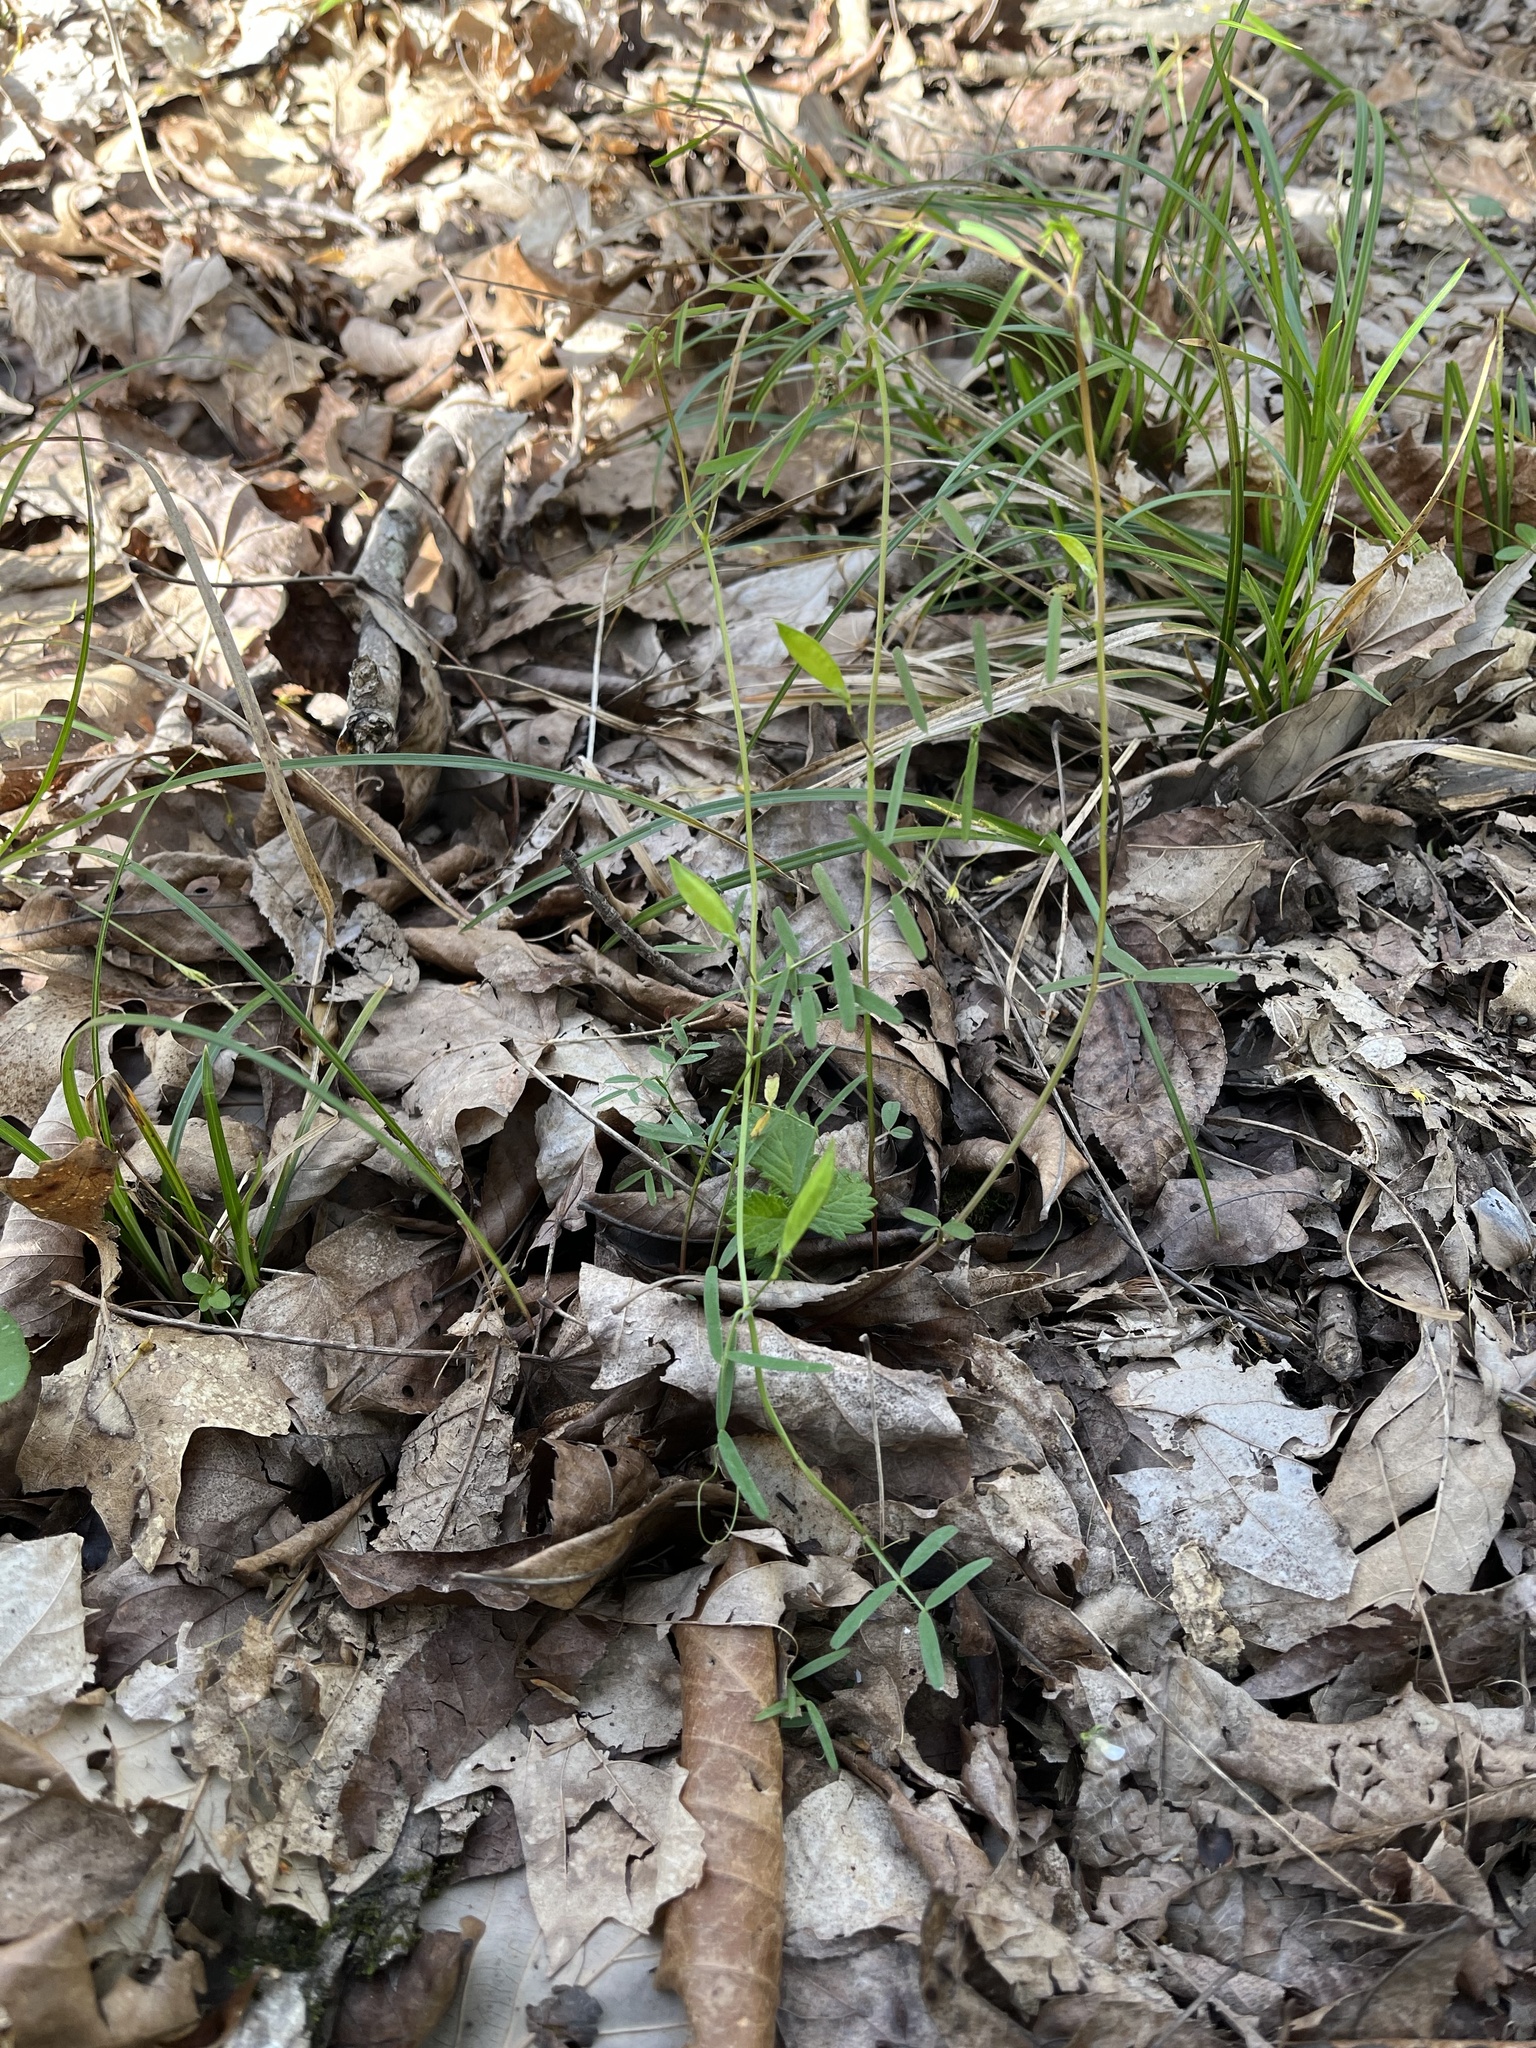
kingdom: Plantae
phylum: Tracheophyta
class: Magnoliopsida
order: Fabales
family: Fabaceae
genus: Vicia
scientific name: Vicia minutiflora
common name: Pygmy-flower vetch
